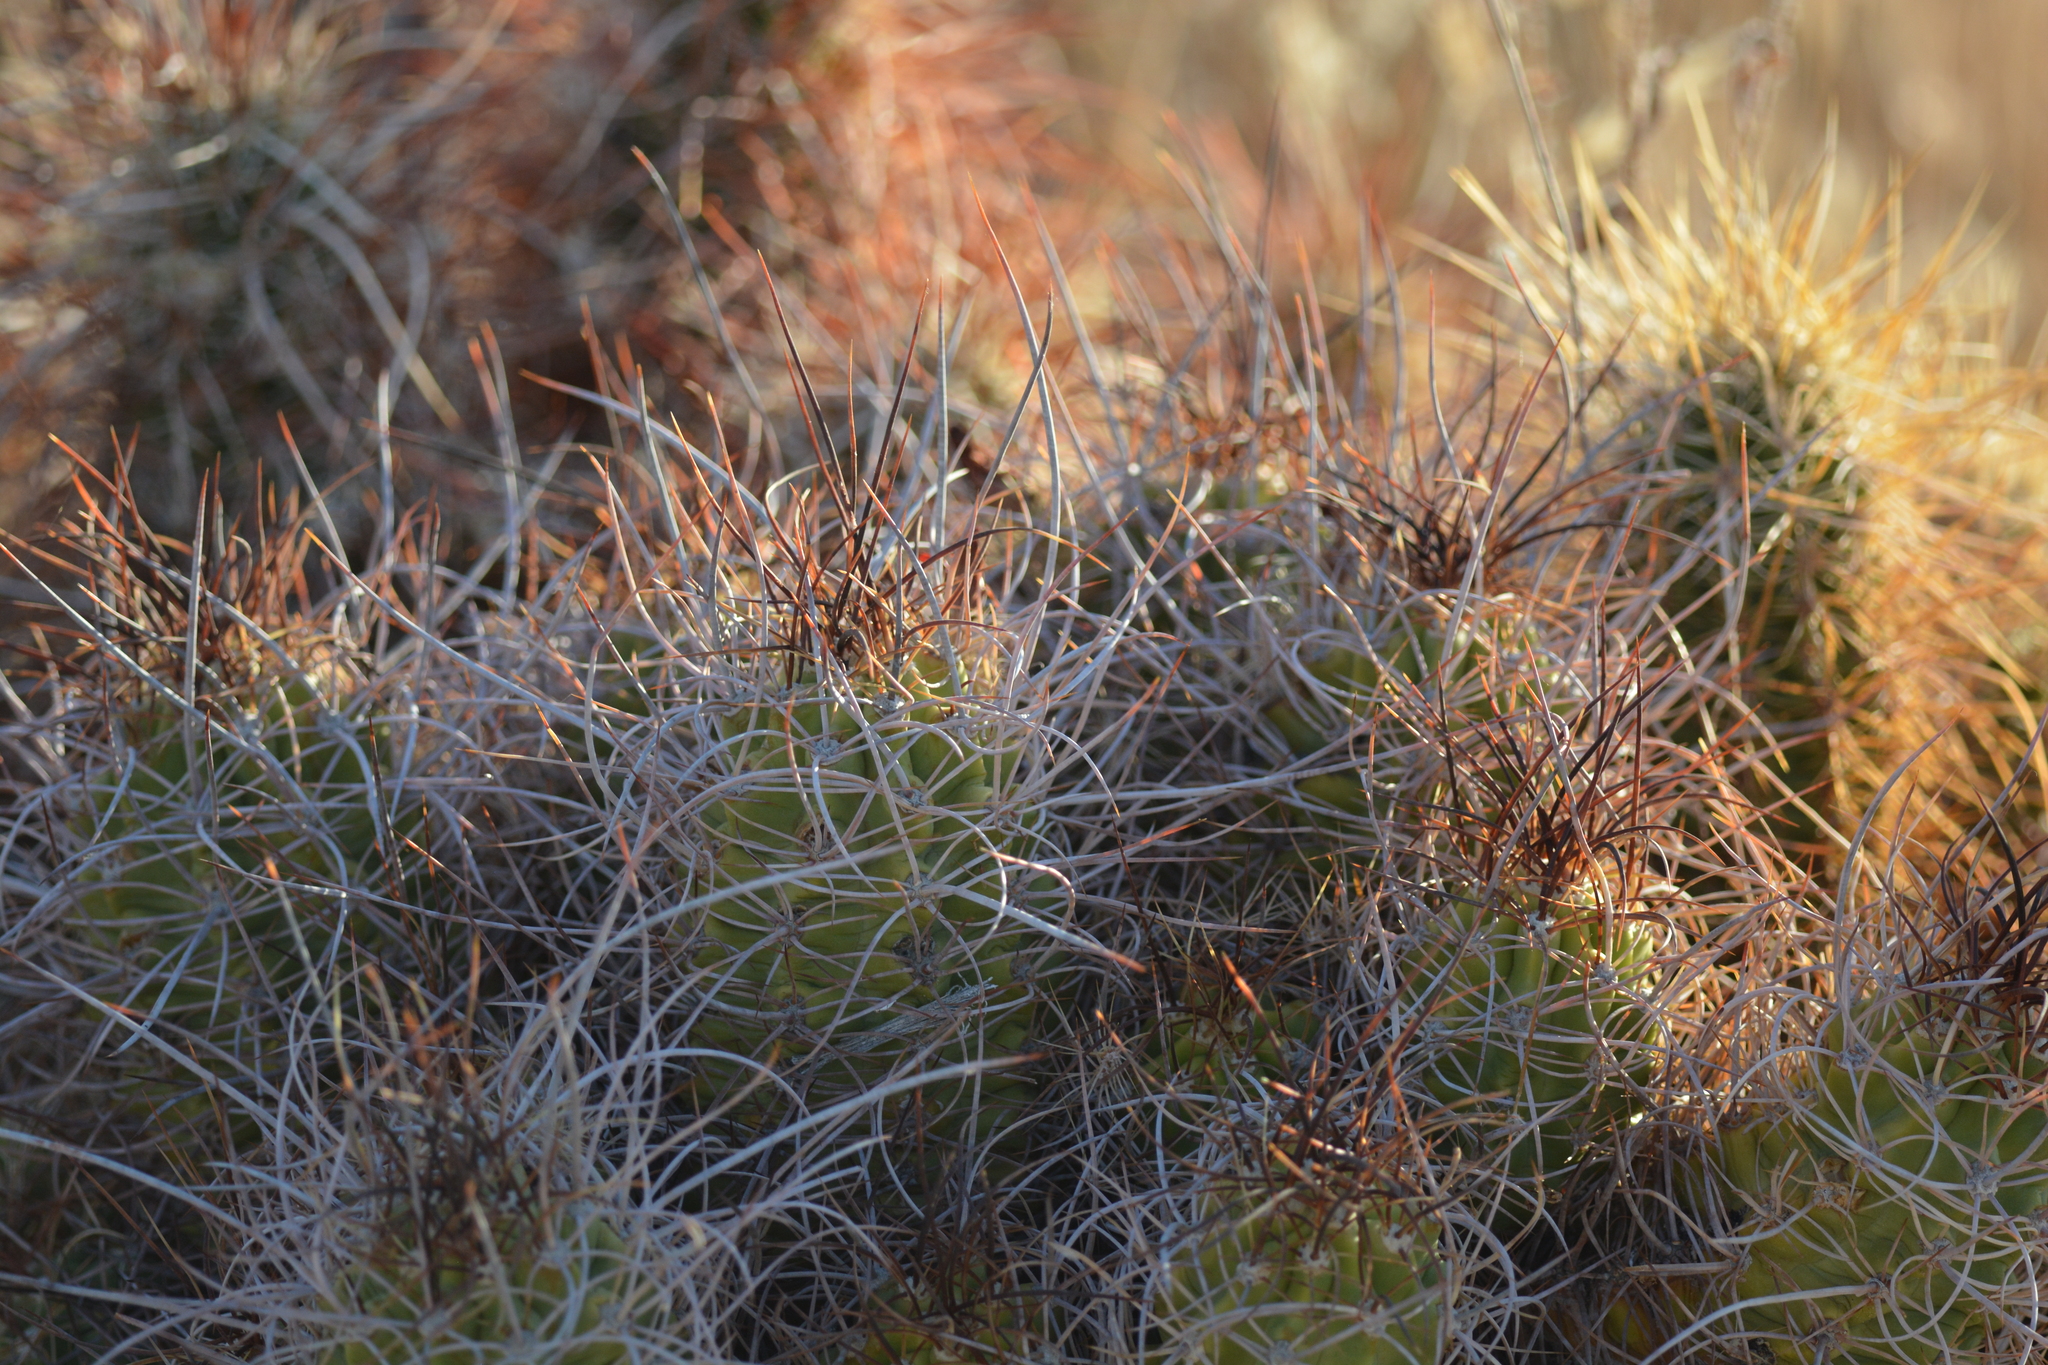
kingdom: Plantae
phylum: Tracheophyta
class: Magnoliopsida
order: Caryophyllales
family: Cactaceae
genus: Echinocereus
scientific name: Echinocereus triglochidiatus
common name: Claretcup hedgehog
